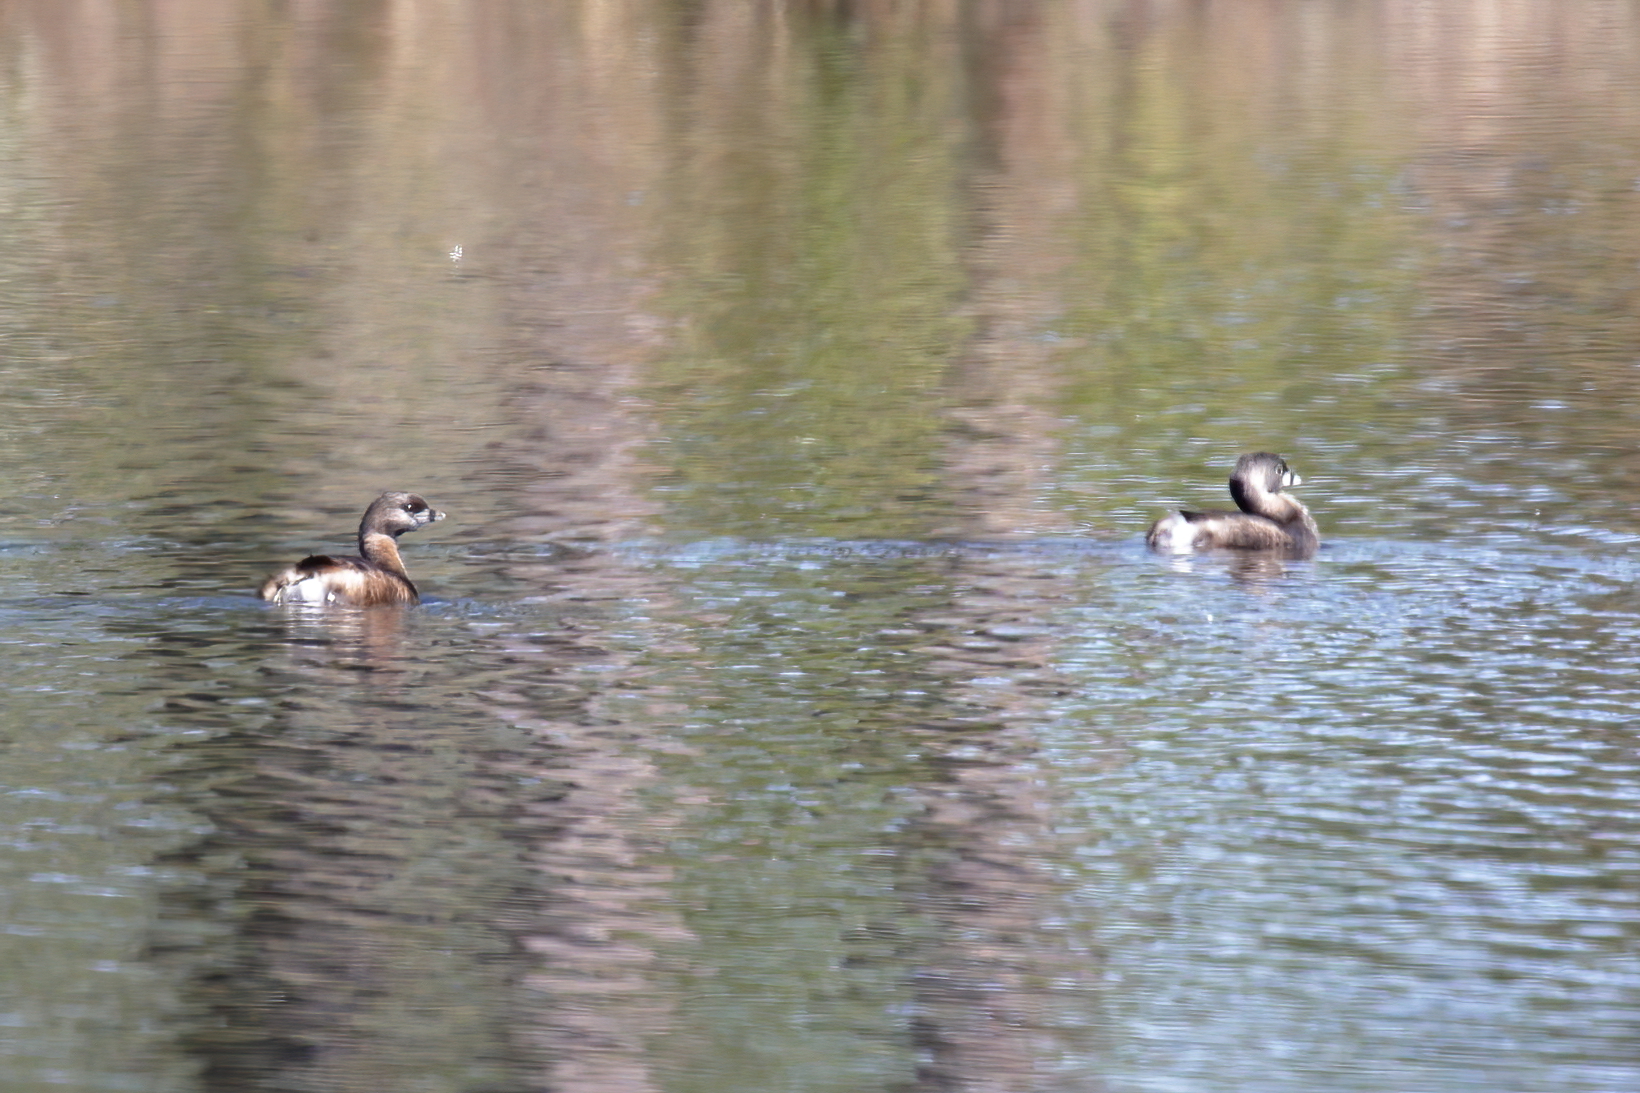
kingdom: Animalia
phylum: Chordata
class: Aves
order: Podicipediformes
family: Podicipedidae
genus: Podilymbus
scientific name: Podilymbus podiceps
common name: Pied-billed grebe
